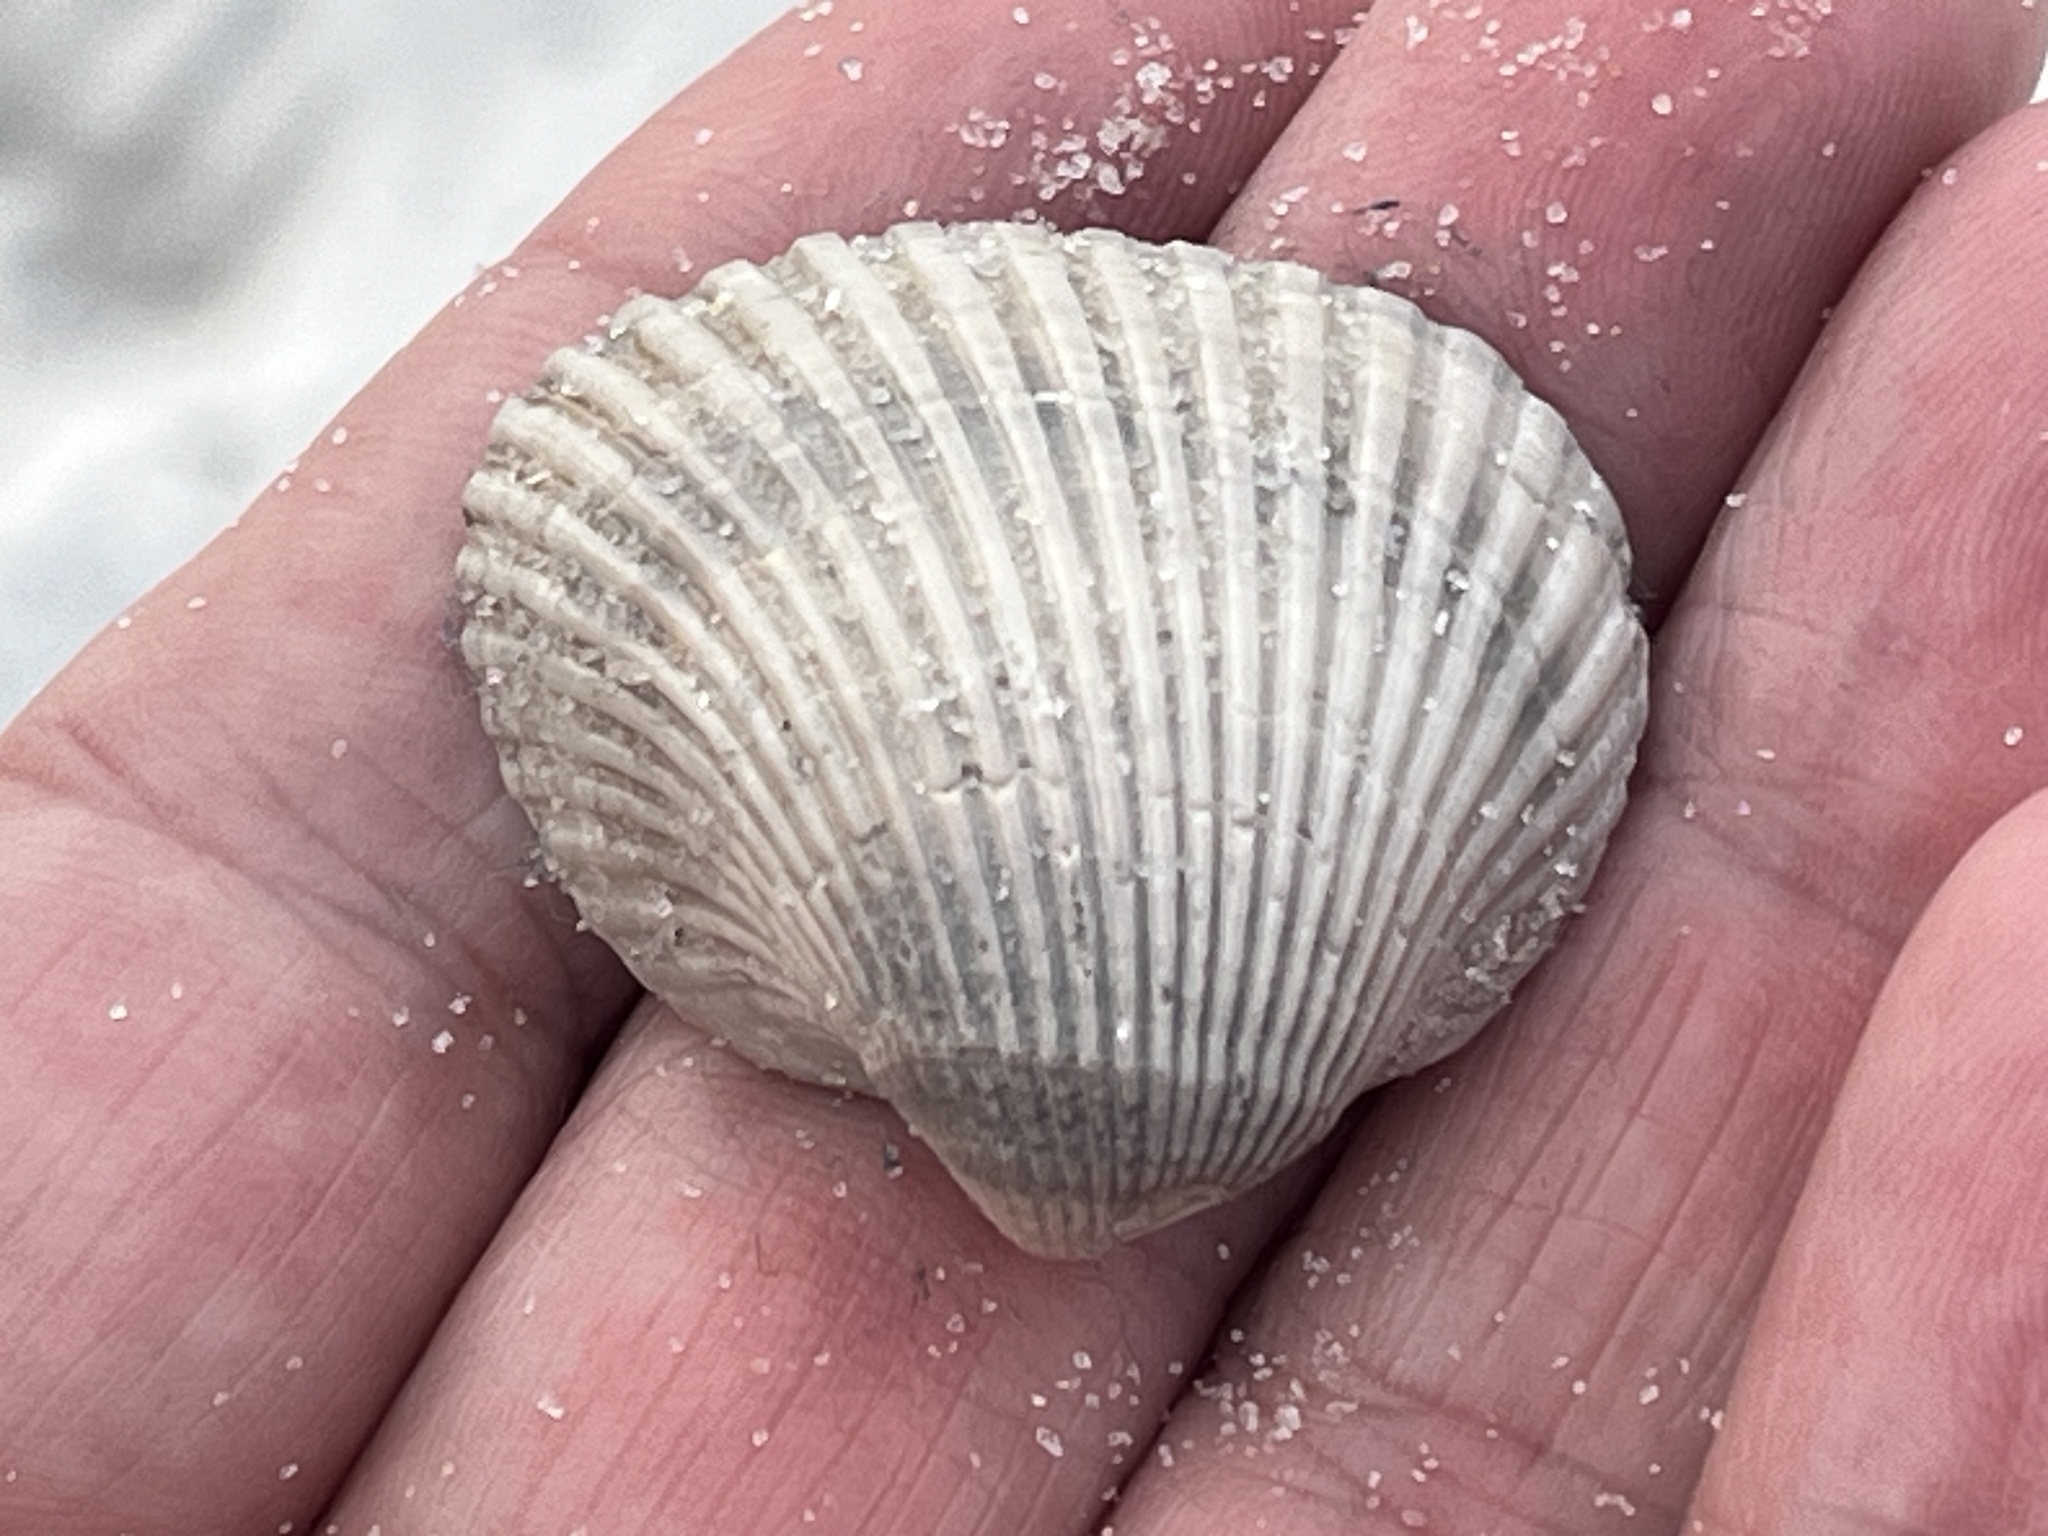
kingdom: Animalia
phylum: Mollusca
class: Bivalvia
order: Arcida
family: Noetiidae
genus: Noetia
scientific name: Noetia ponderosa
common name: Ponderous ark
